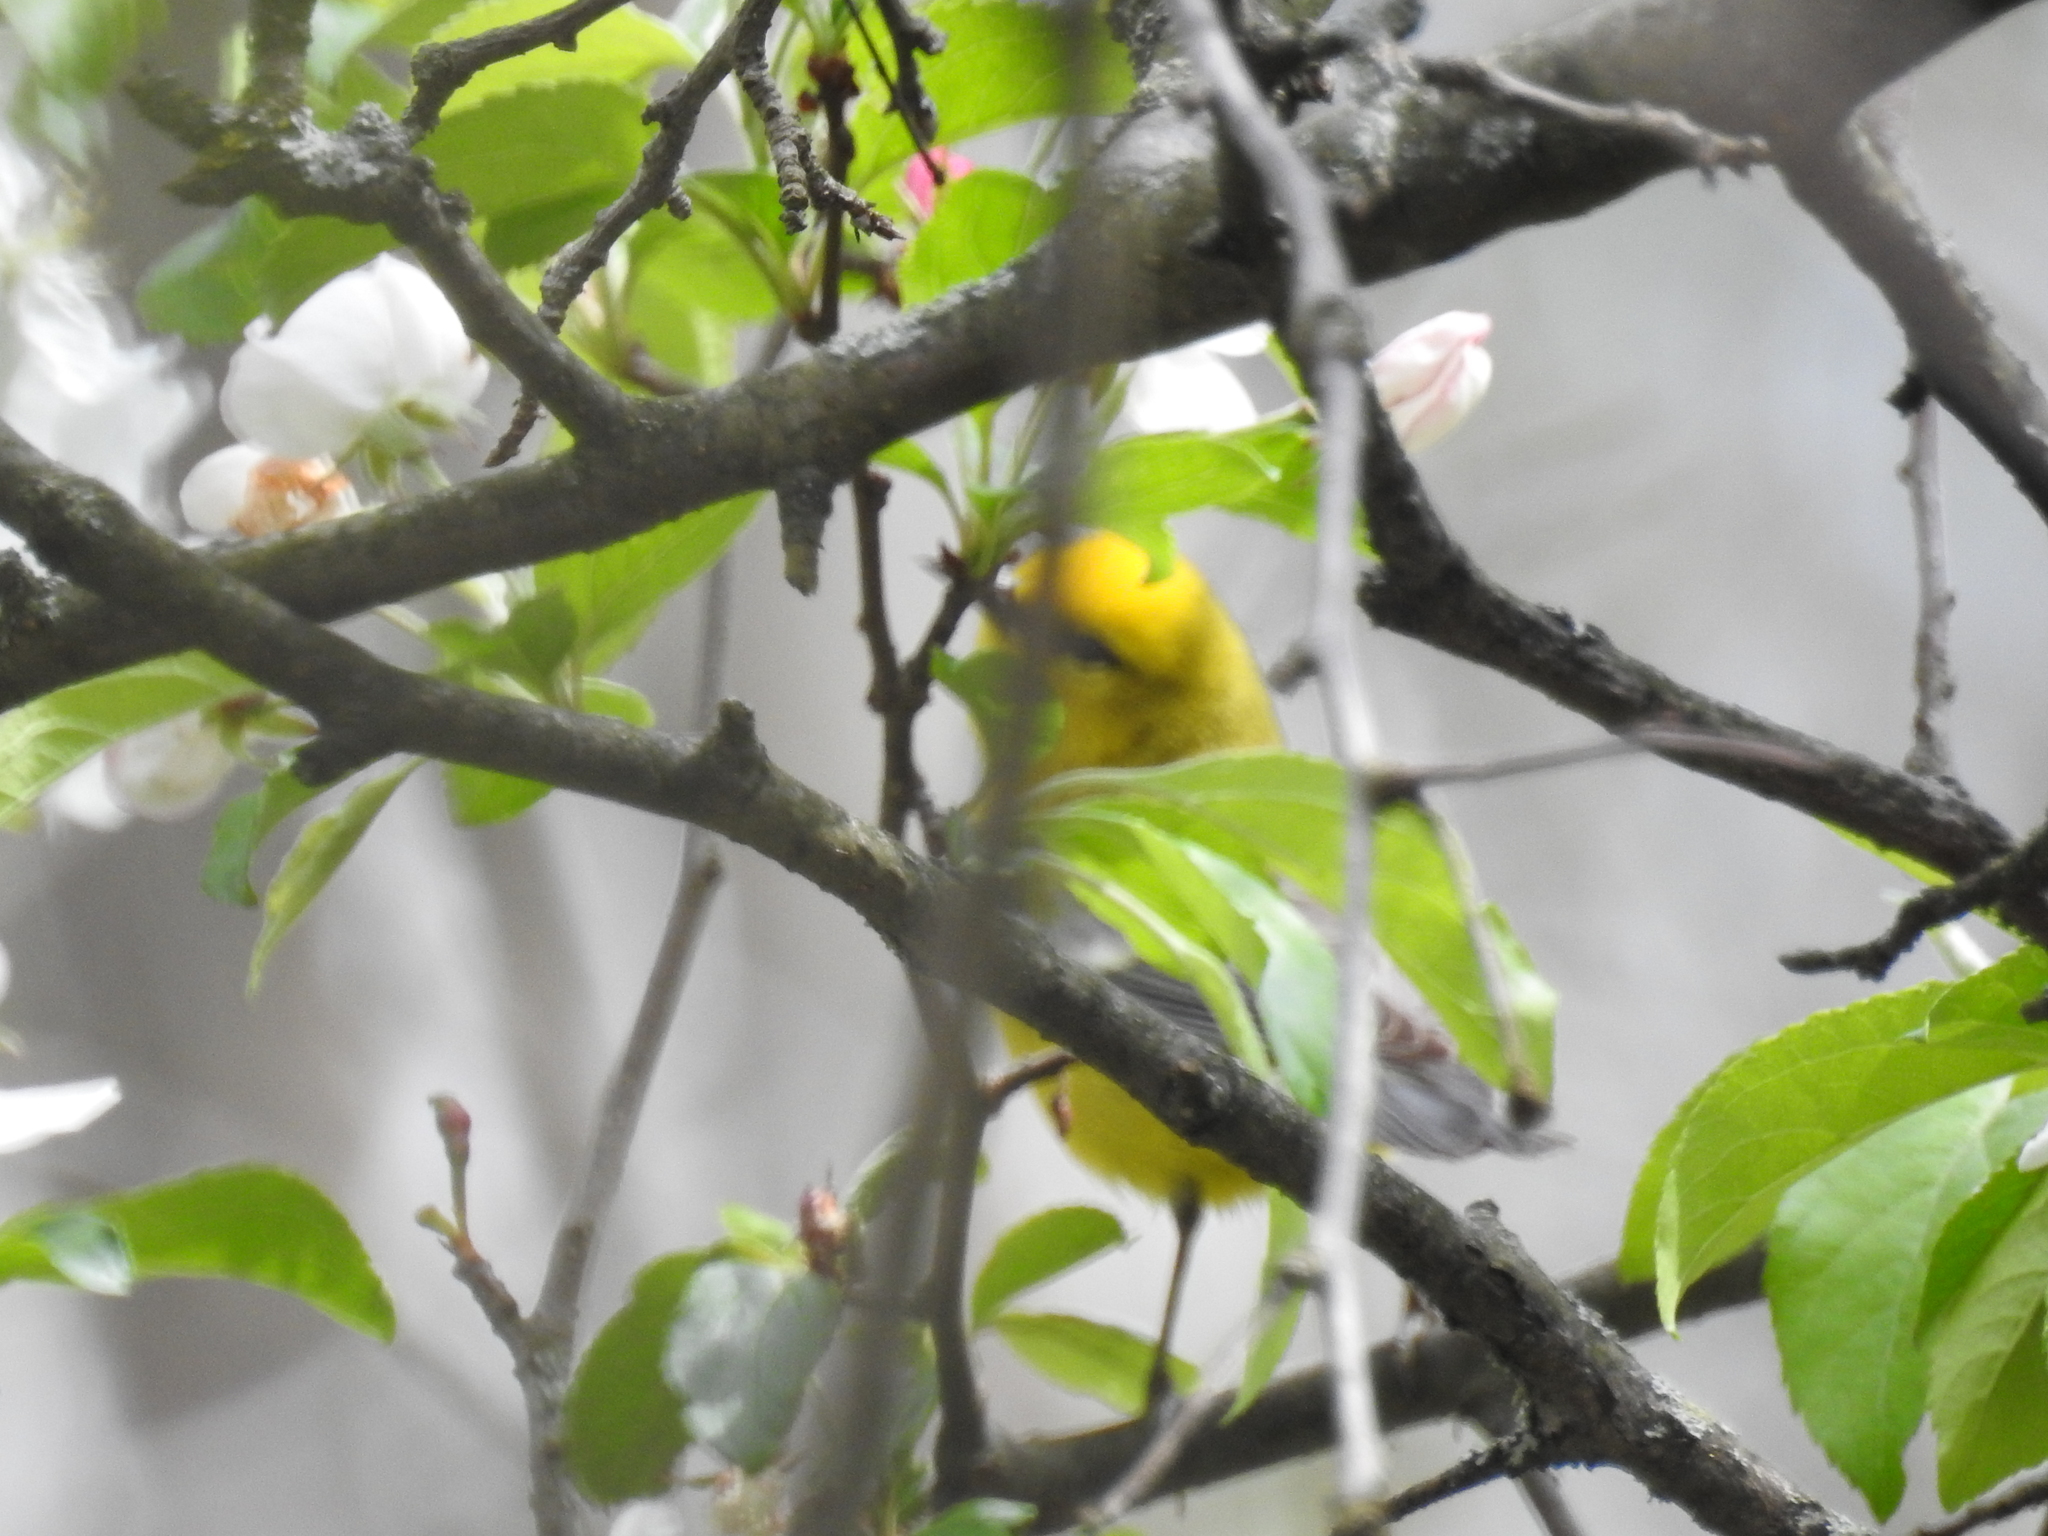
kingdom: Animalia
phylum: Chordata
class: Aves
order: Passeriformes
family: Parulidae
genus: Vermivora
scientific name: Vermivora cyanoptera
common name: Blue-winged warbler
